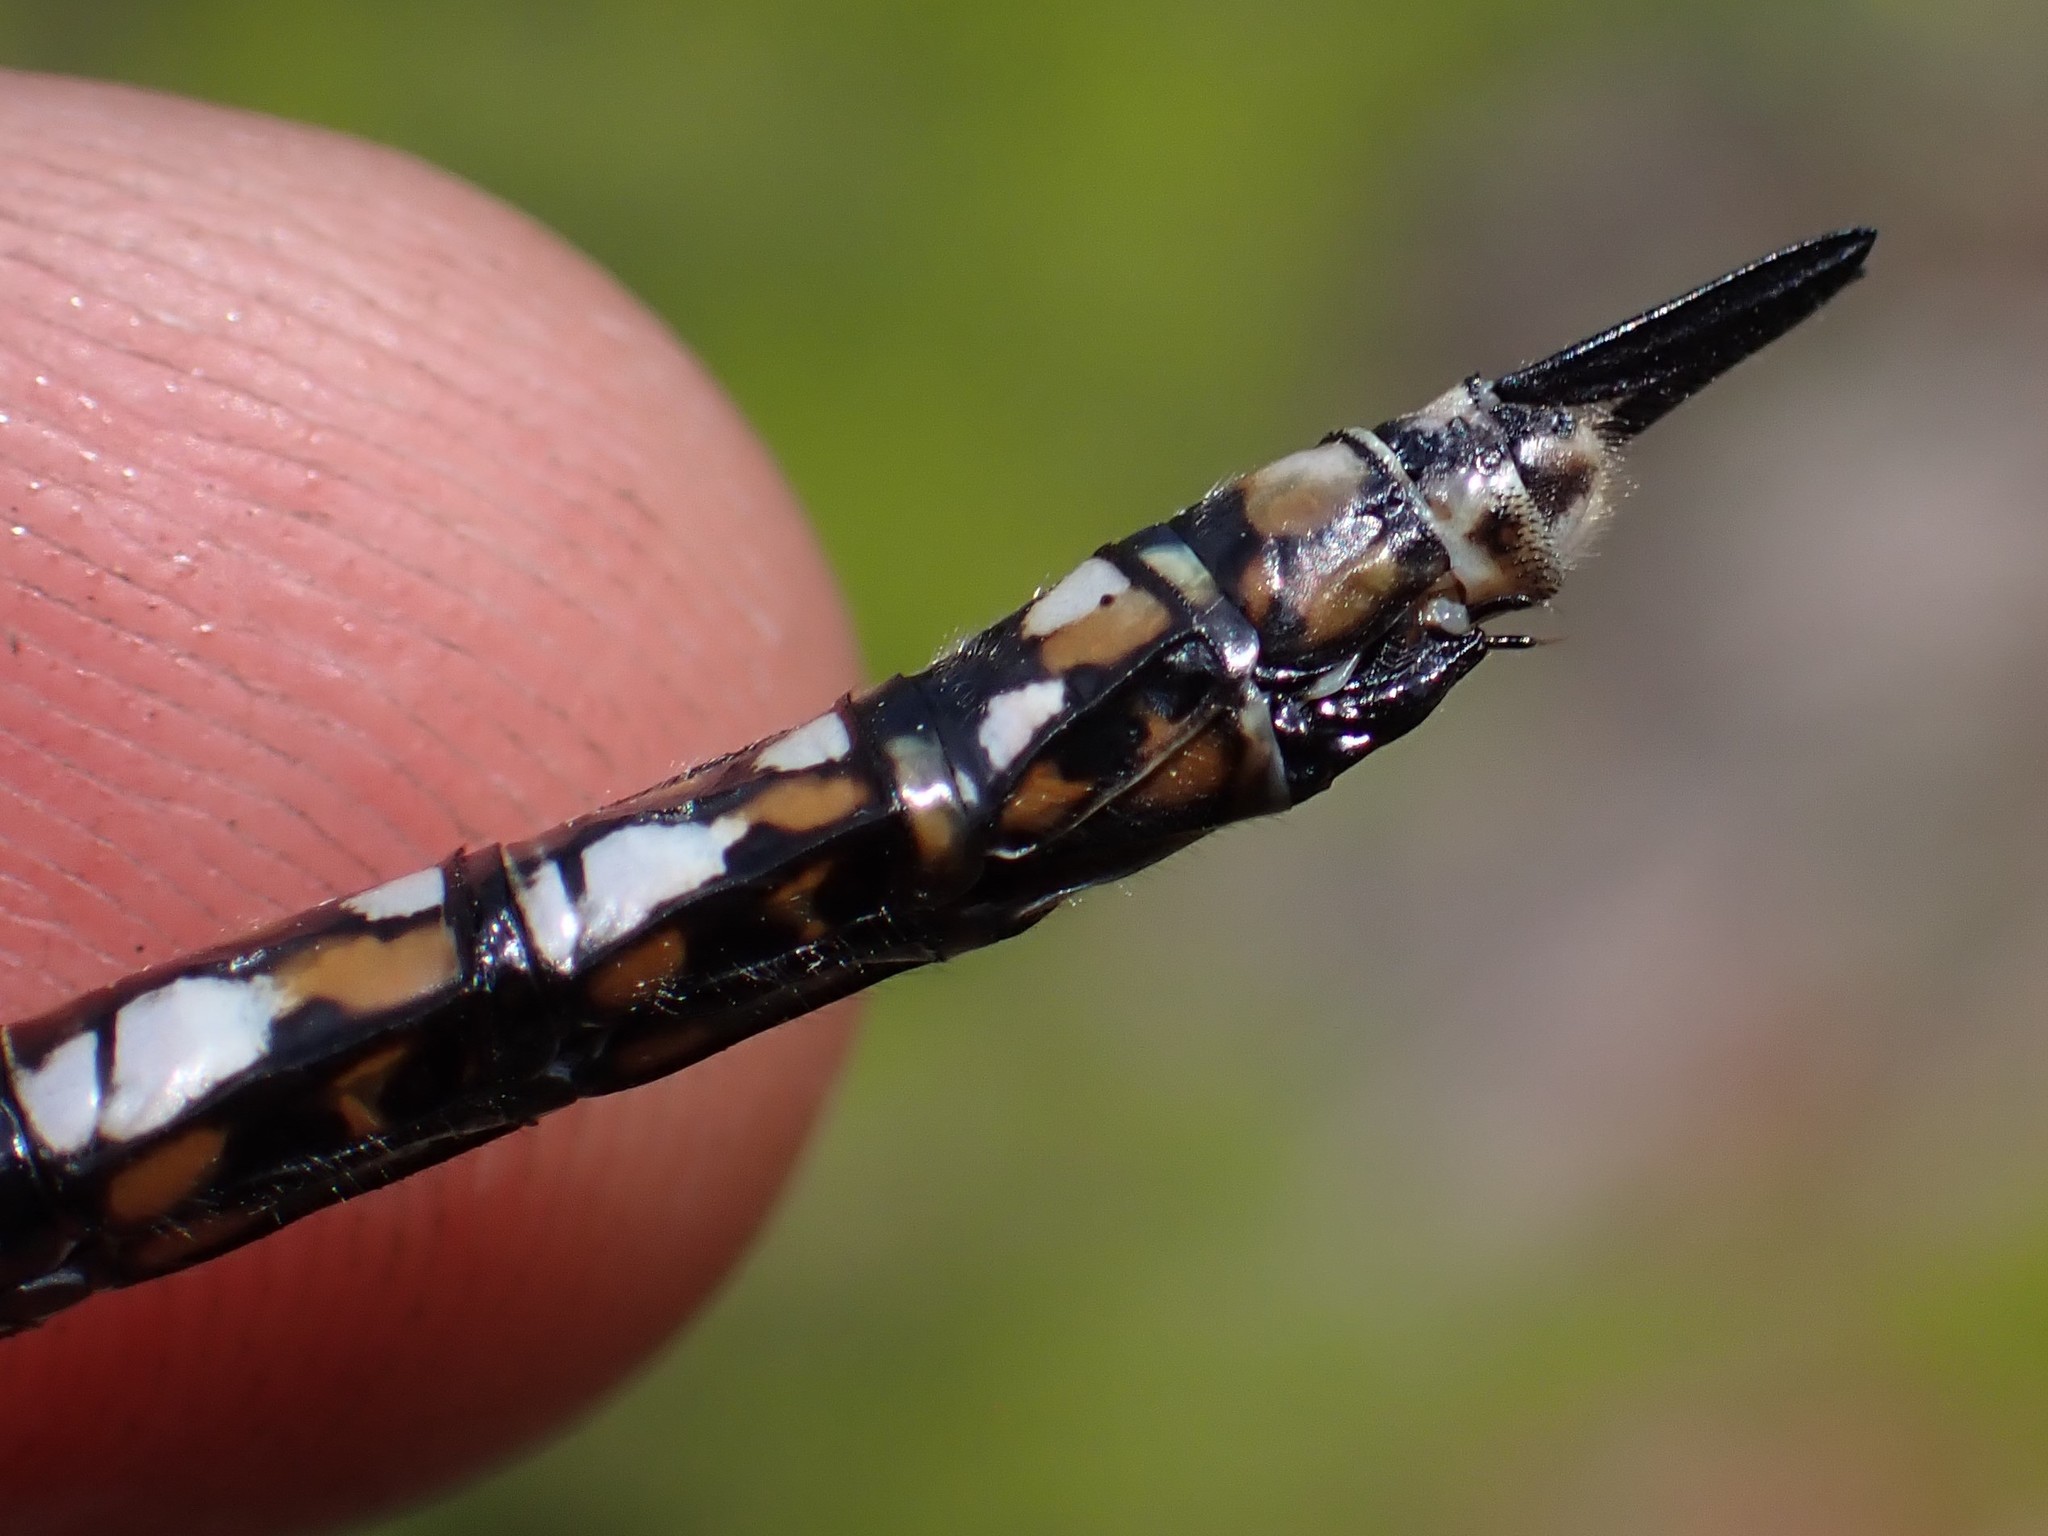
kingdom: Animalia
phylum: Arthropoda
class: Insecta
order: Odonata
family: Aeshnidae
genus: Rhionaeschna
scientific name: Rhionaeschna californica
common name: California darner
